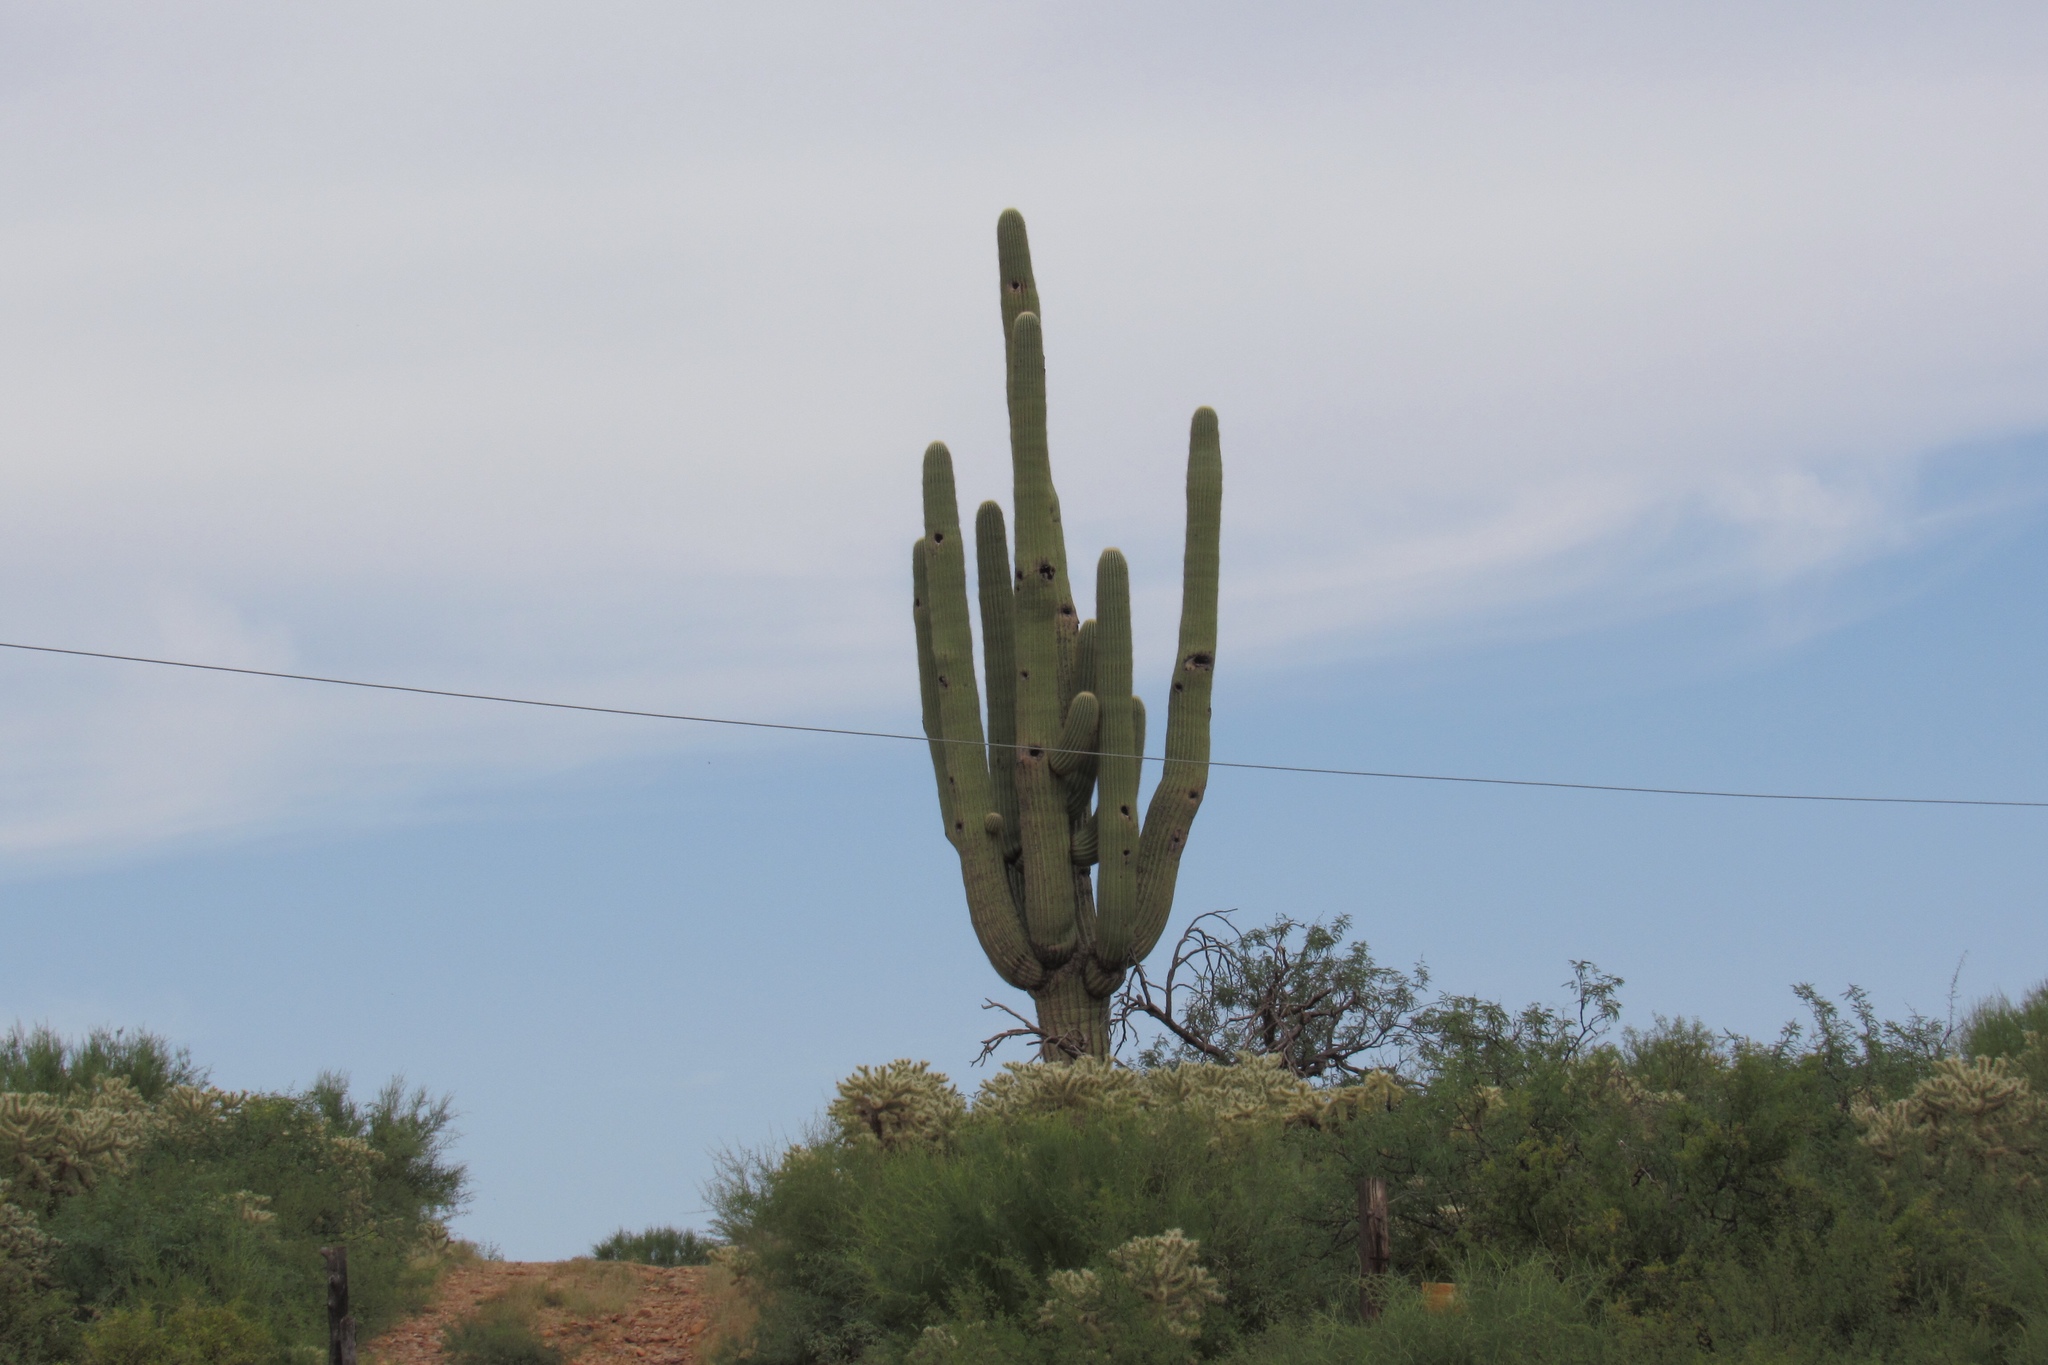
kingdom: Plantae
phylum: Tracheophyta
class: Magnoliopsida
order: Caryophyllales
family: Cactaceae
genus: Carnegiea
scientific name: Carnegiea gigantea
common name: Saguaro
